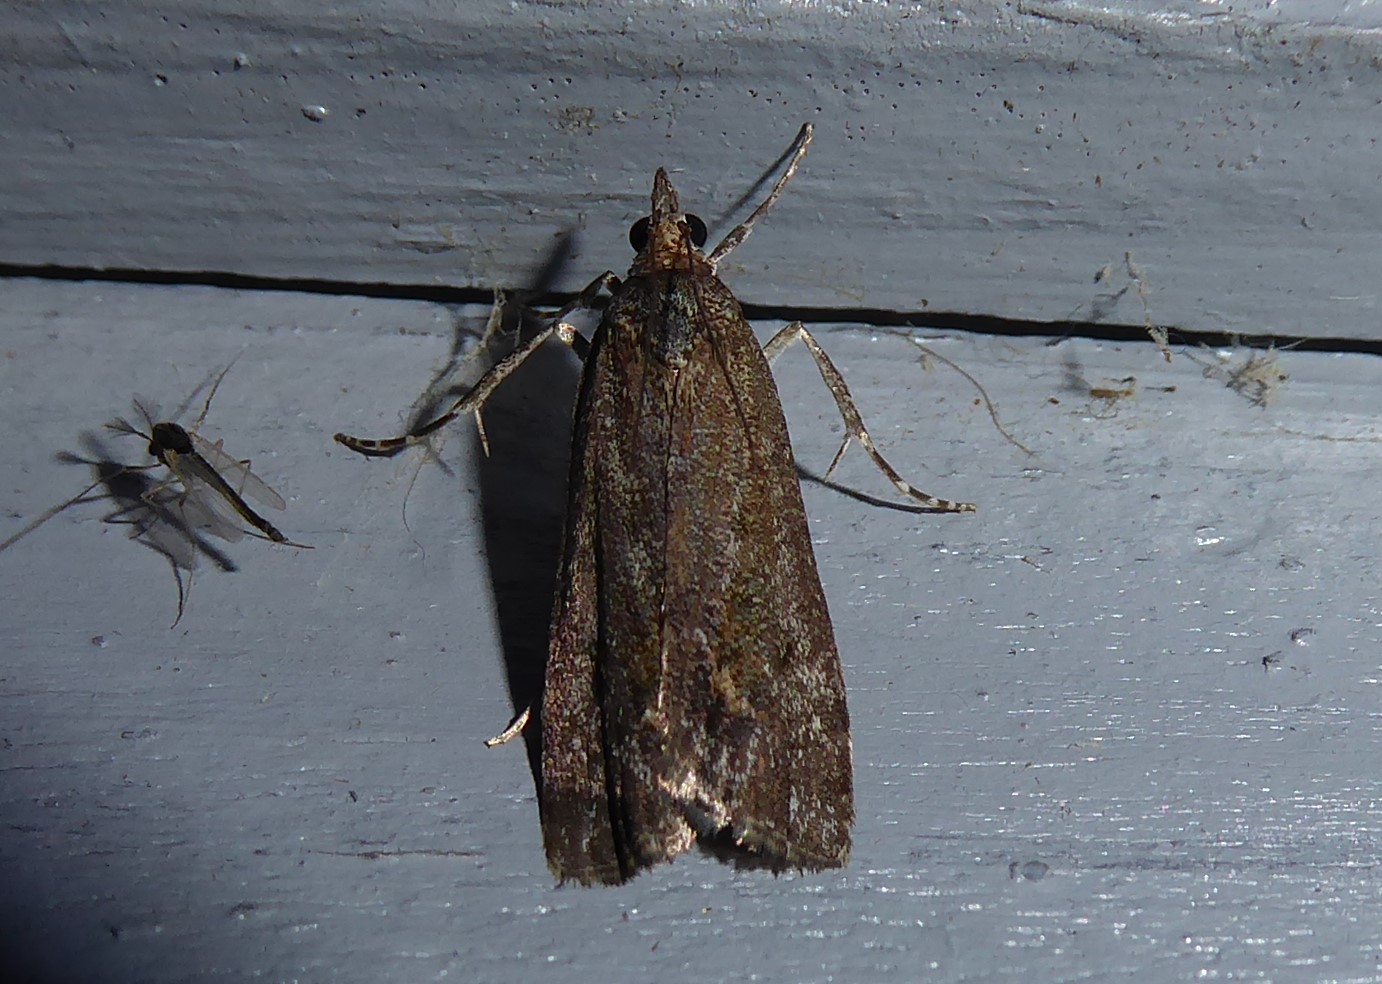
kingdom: Animalia
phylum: Arthropoda
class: Insecta
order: Lepidoptera
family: Crambidae
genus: Eudonia
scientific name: Eudonia submarginalis
